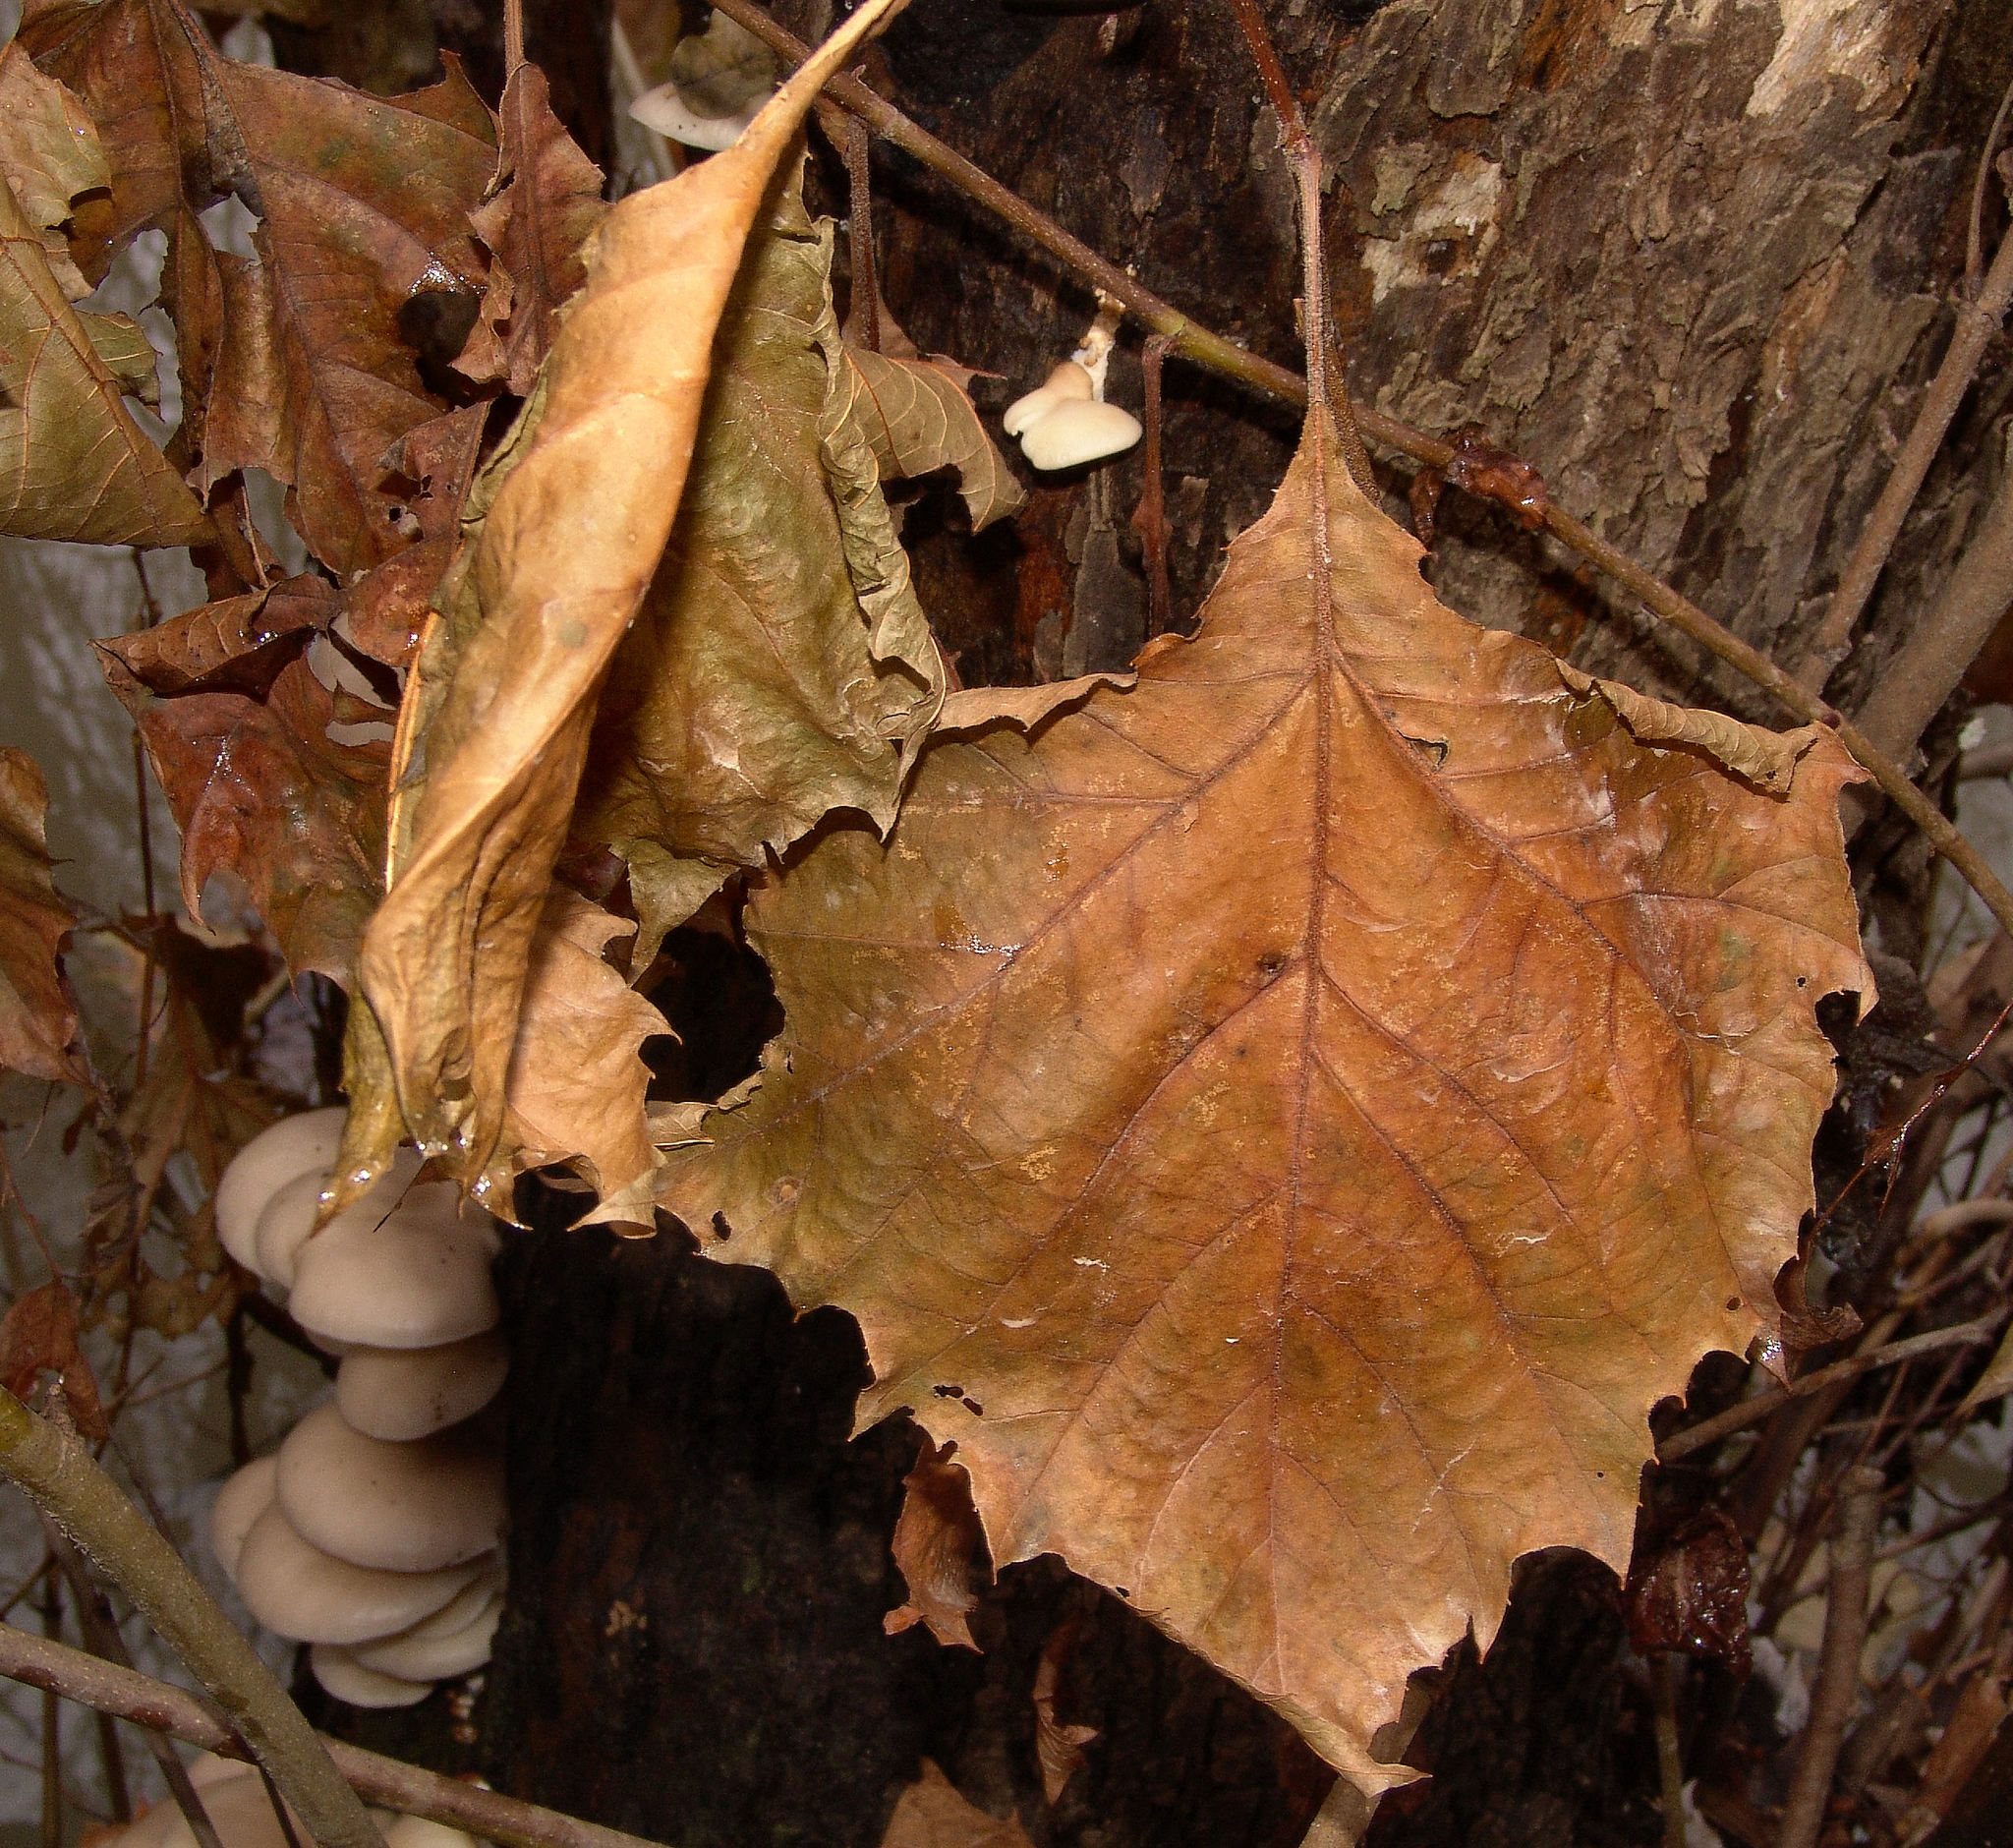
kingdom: Plantae
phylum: Tracheophyta
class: Magnoliopsida
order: Proteales
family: Platanaceae
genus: Platanus
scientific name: Platanus occidentalis
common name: American sycamore
